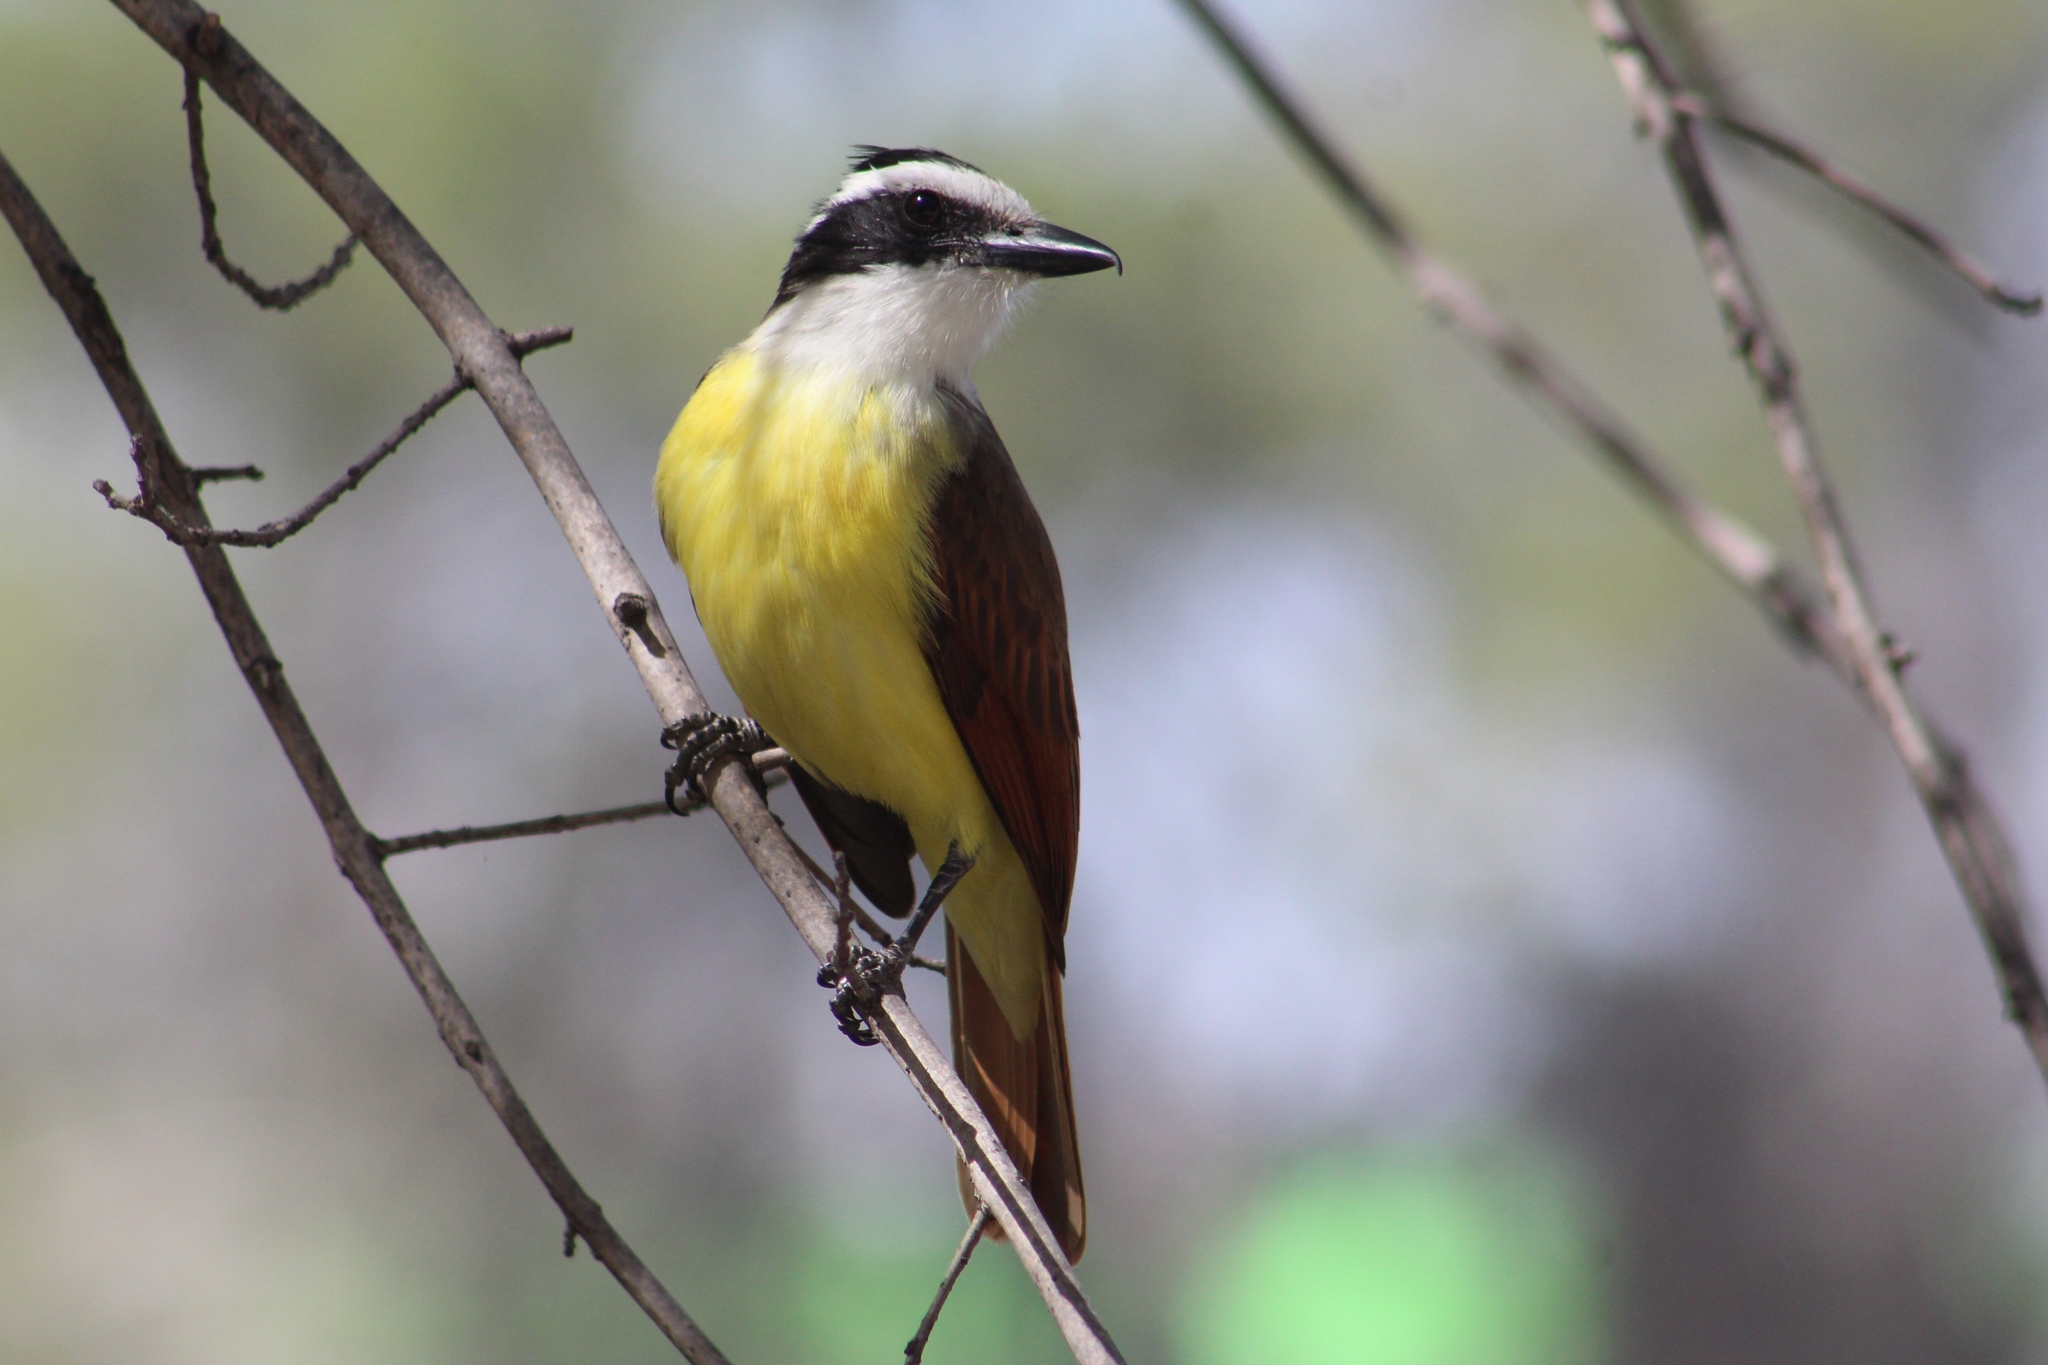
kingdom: Animalia
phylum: Chordata
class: Aves
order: Passeriformes
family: Tyrannidae
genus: Pitangus
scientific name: Pitangus sulphuratus
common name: Great kiskadee
